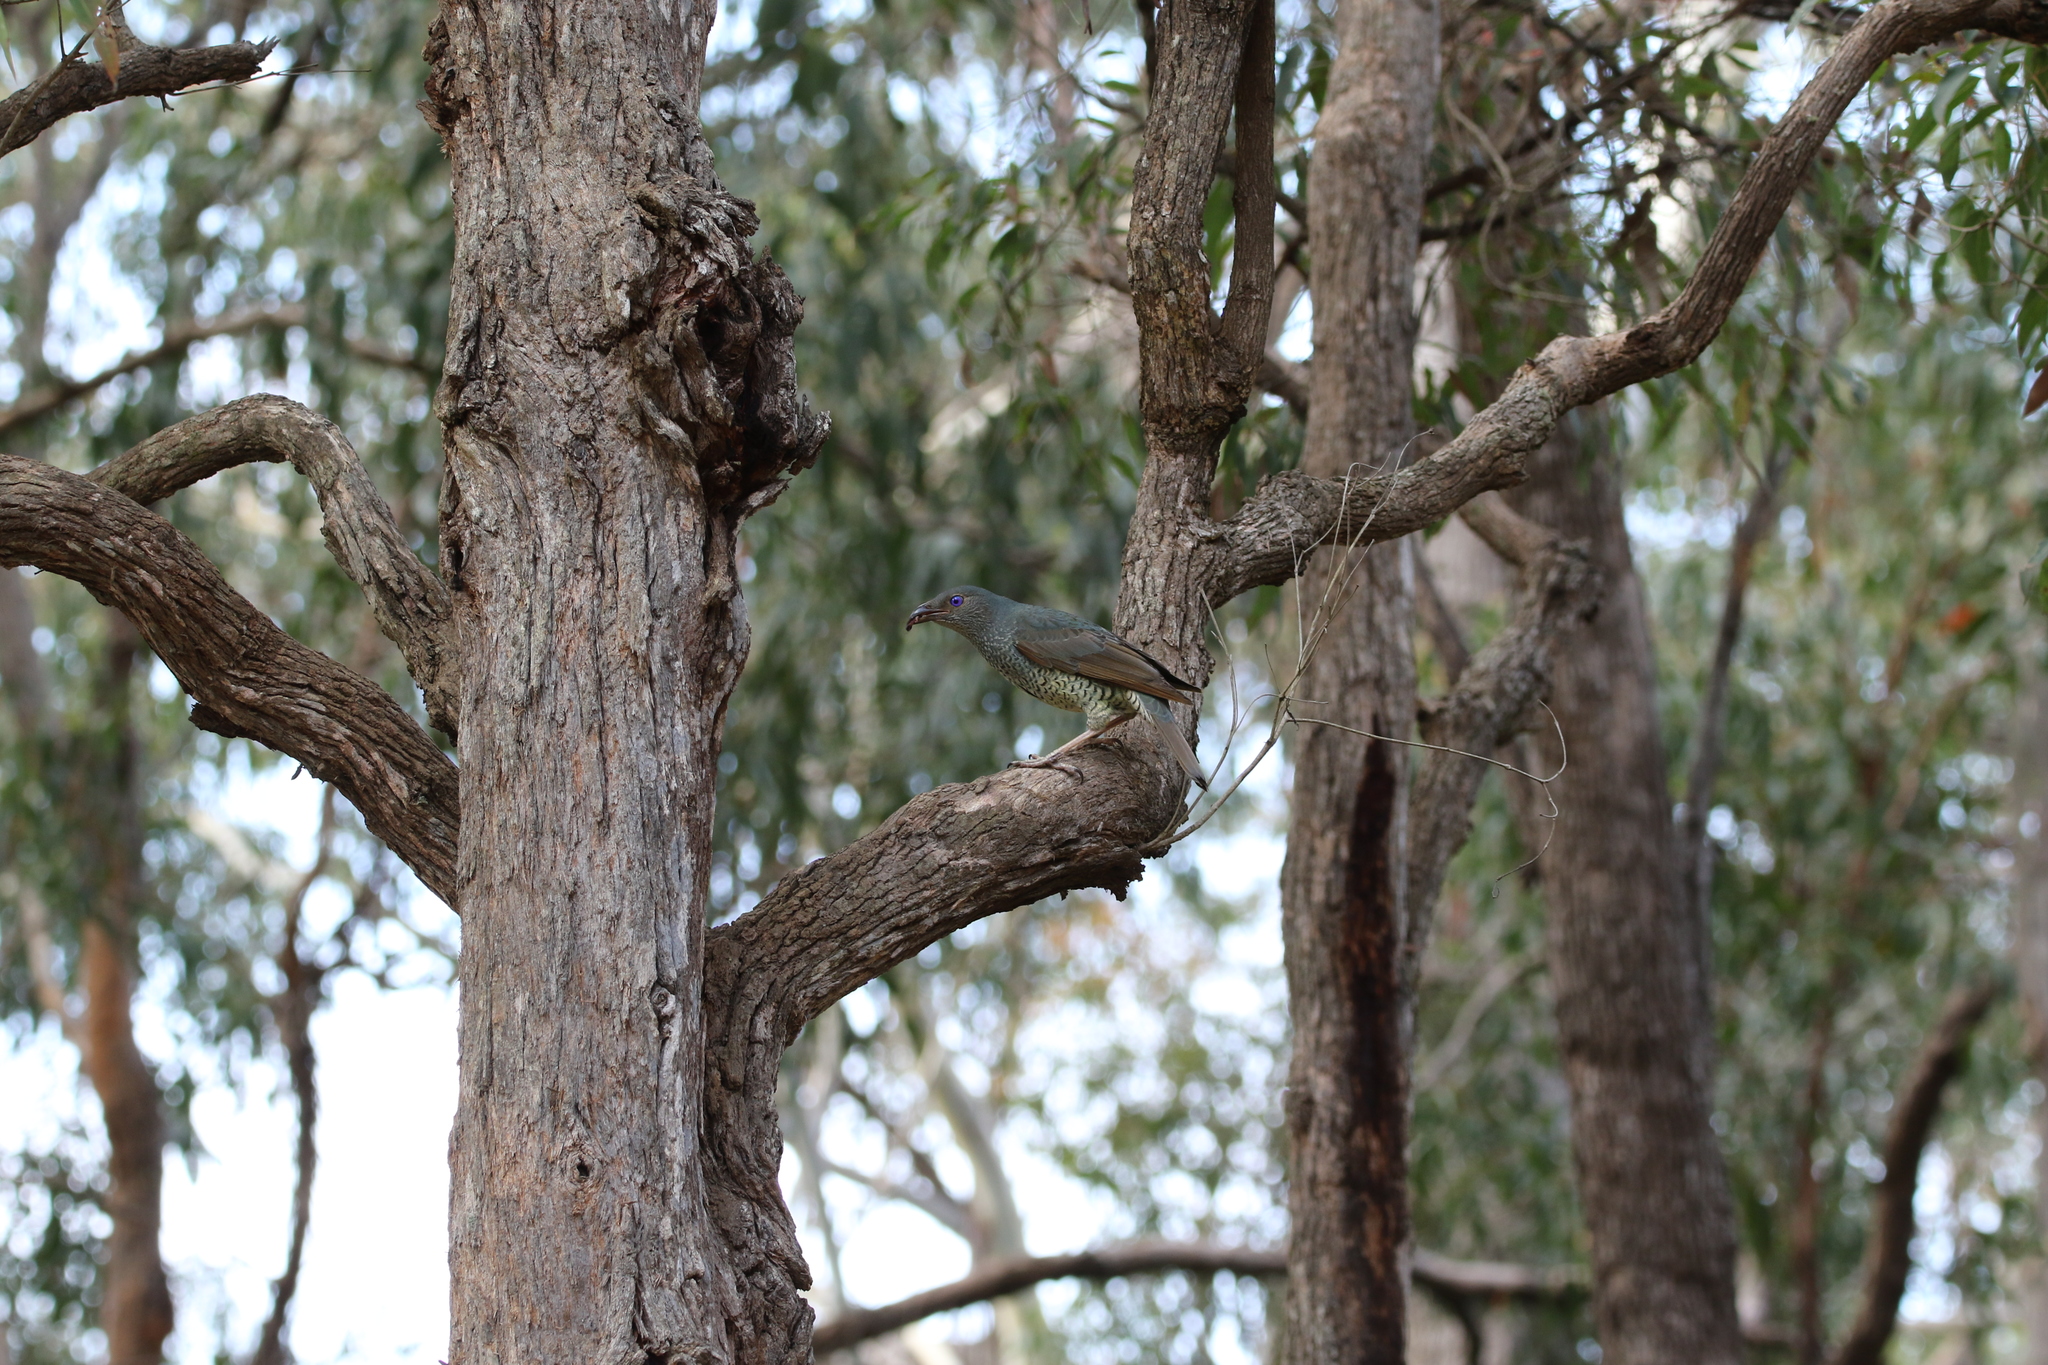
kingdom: Animalia
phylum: Chordata
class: Aves
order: Passeriformes
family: Ptilonorhynchidae
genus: Ptilonorhynchus
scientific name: Ptilonorhynchus violaceus
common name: Satin bowerbird
